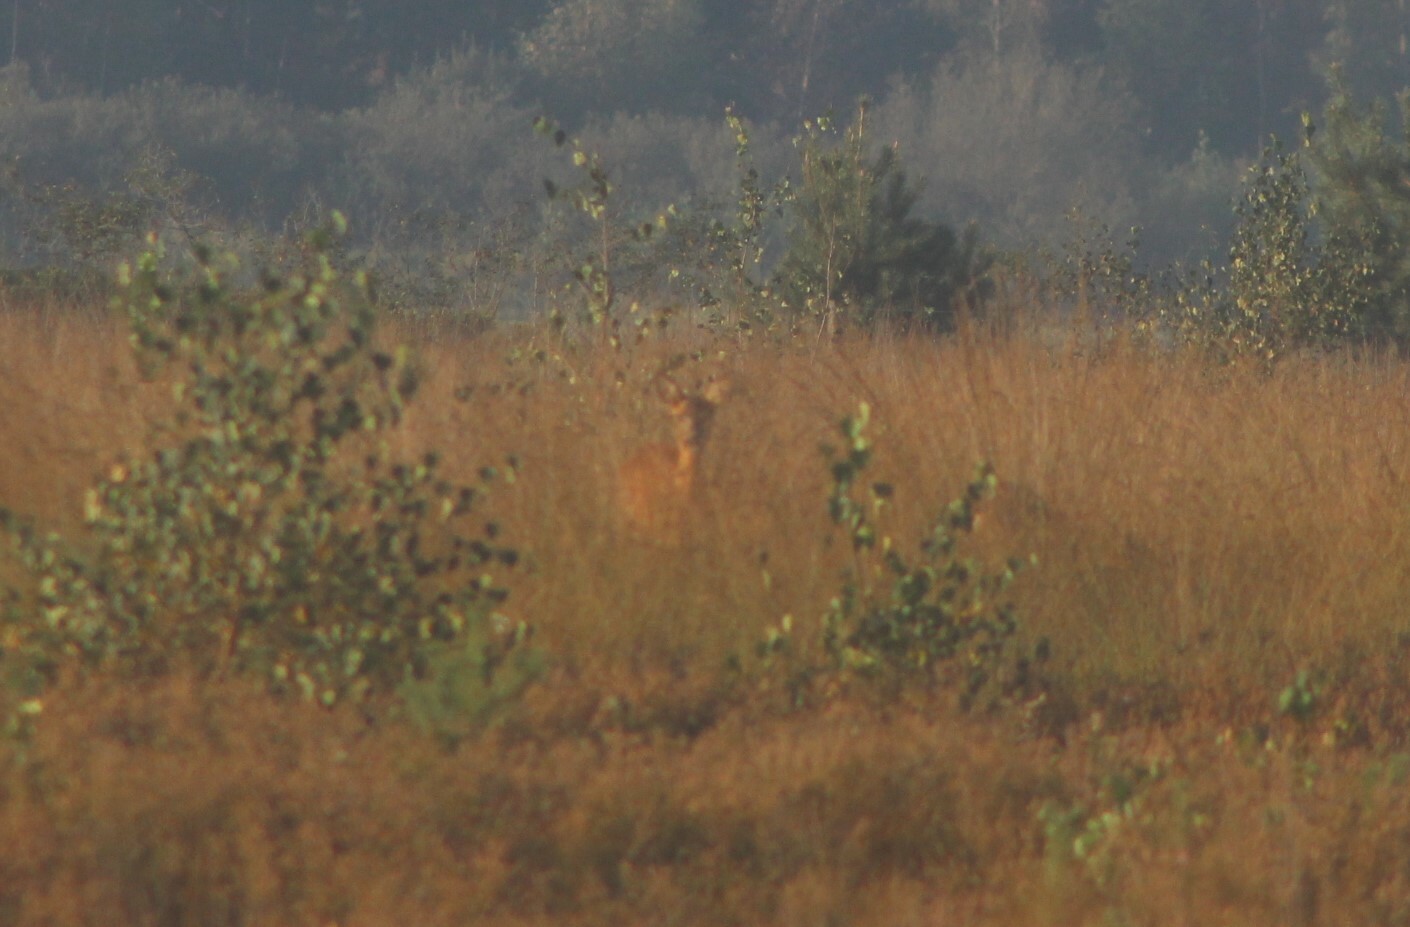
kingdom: Animalia
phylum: Chordata
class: Mammalia
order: Artiodactyla
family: Cervidae
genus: Capreolus
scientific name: Capreolus capreolus
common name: Western roe deer
